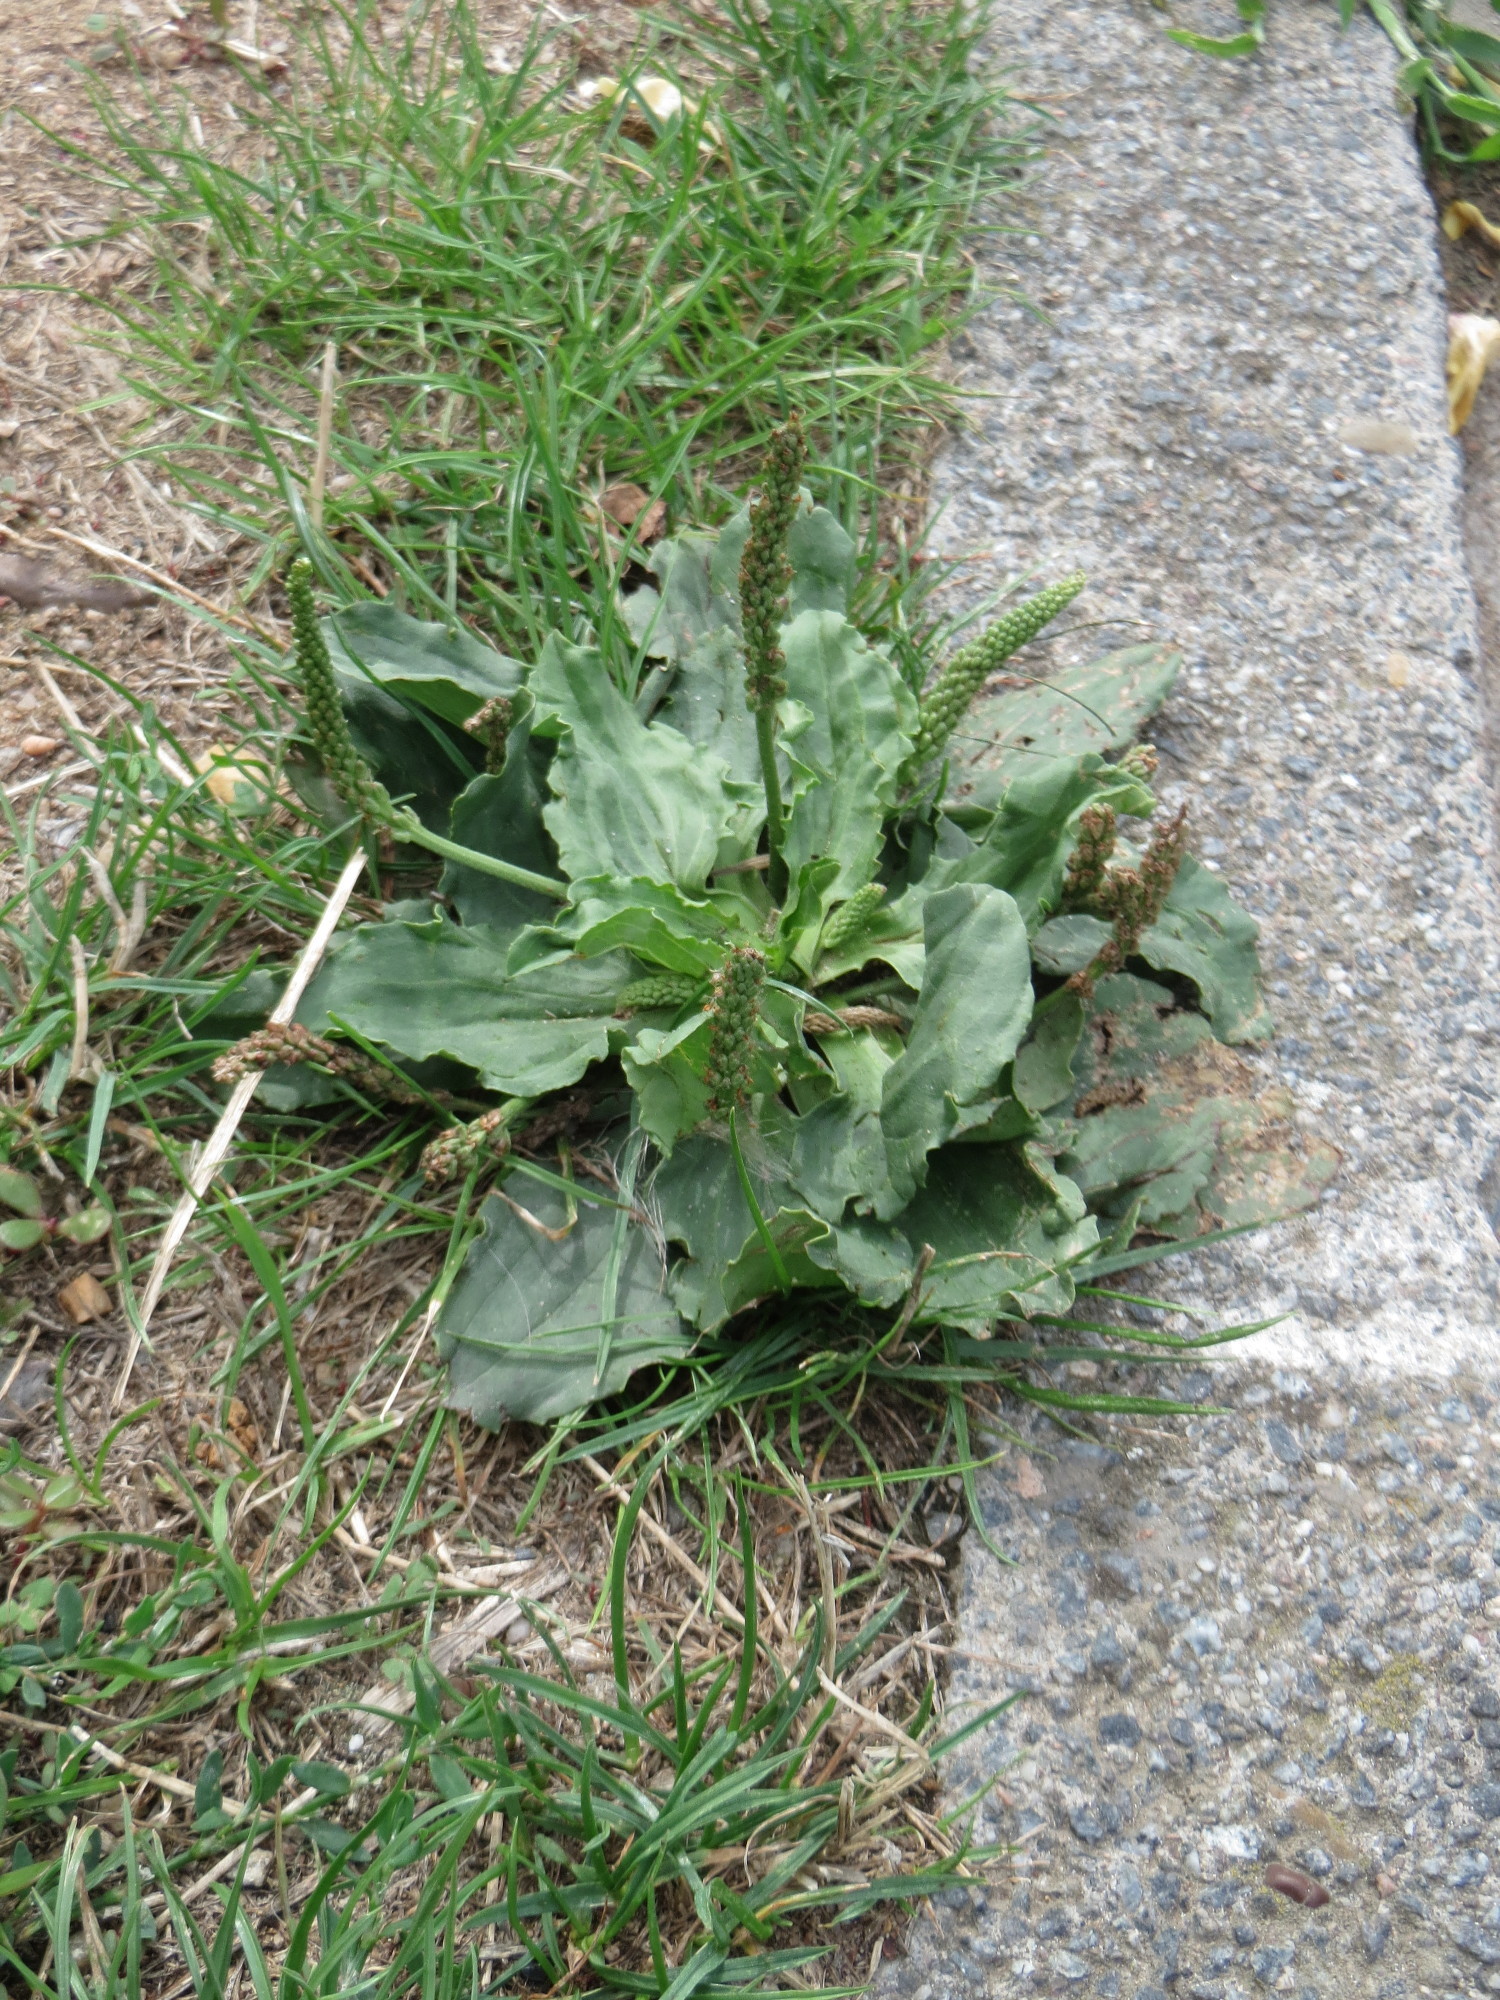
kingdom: Plantae
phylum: Tracheophyta
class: Magnoliopsida
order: Lamiales
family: Plantaginaceae
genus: Plantago
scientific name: Plantago major
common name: Common plantain
